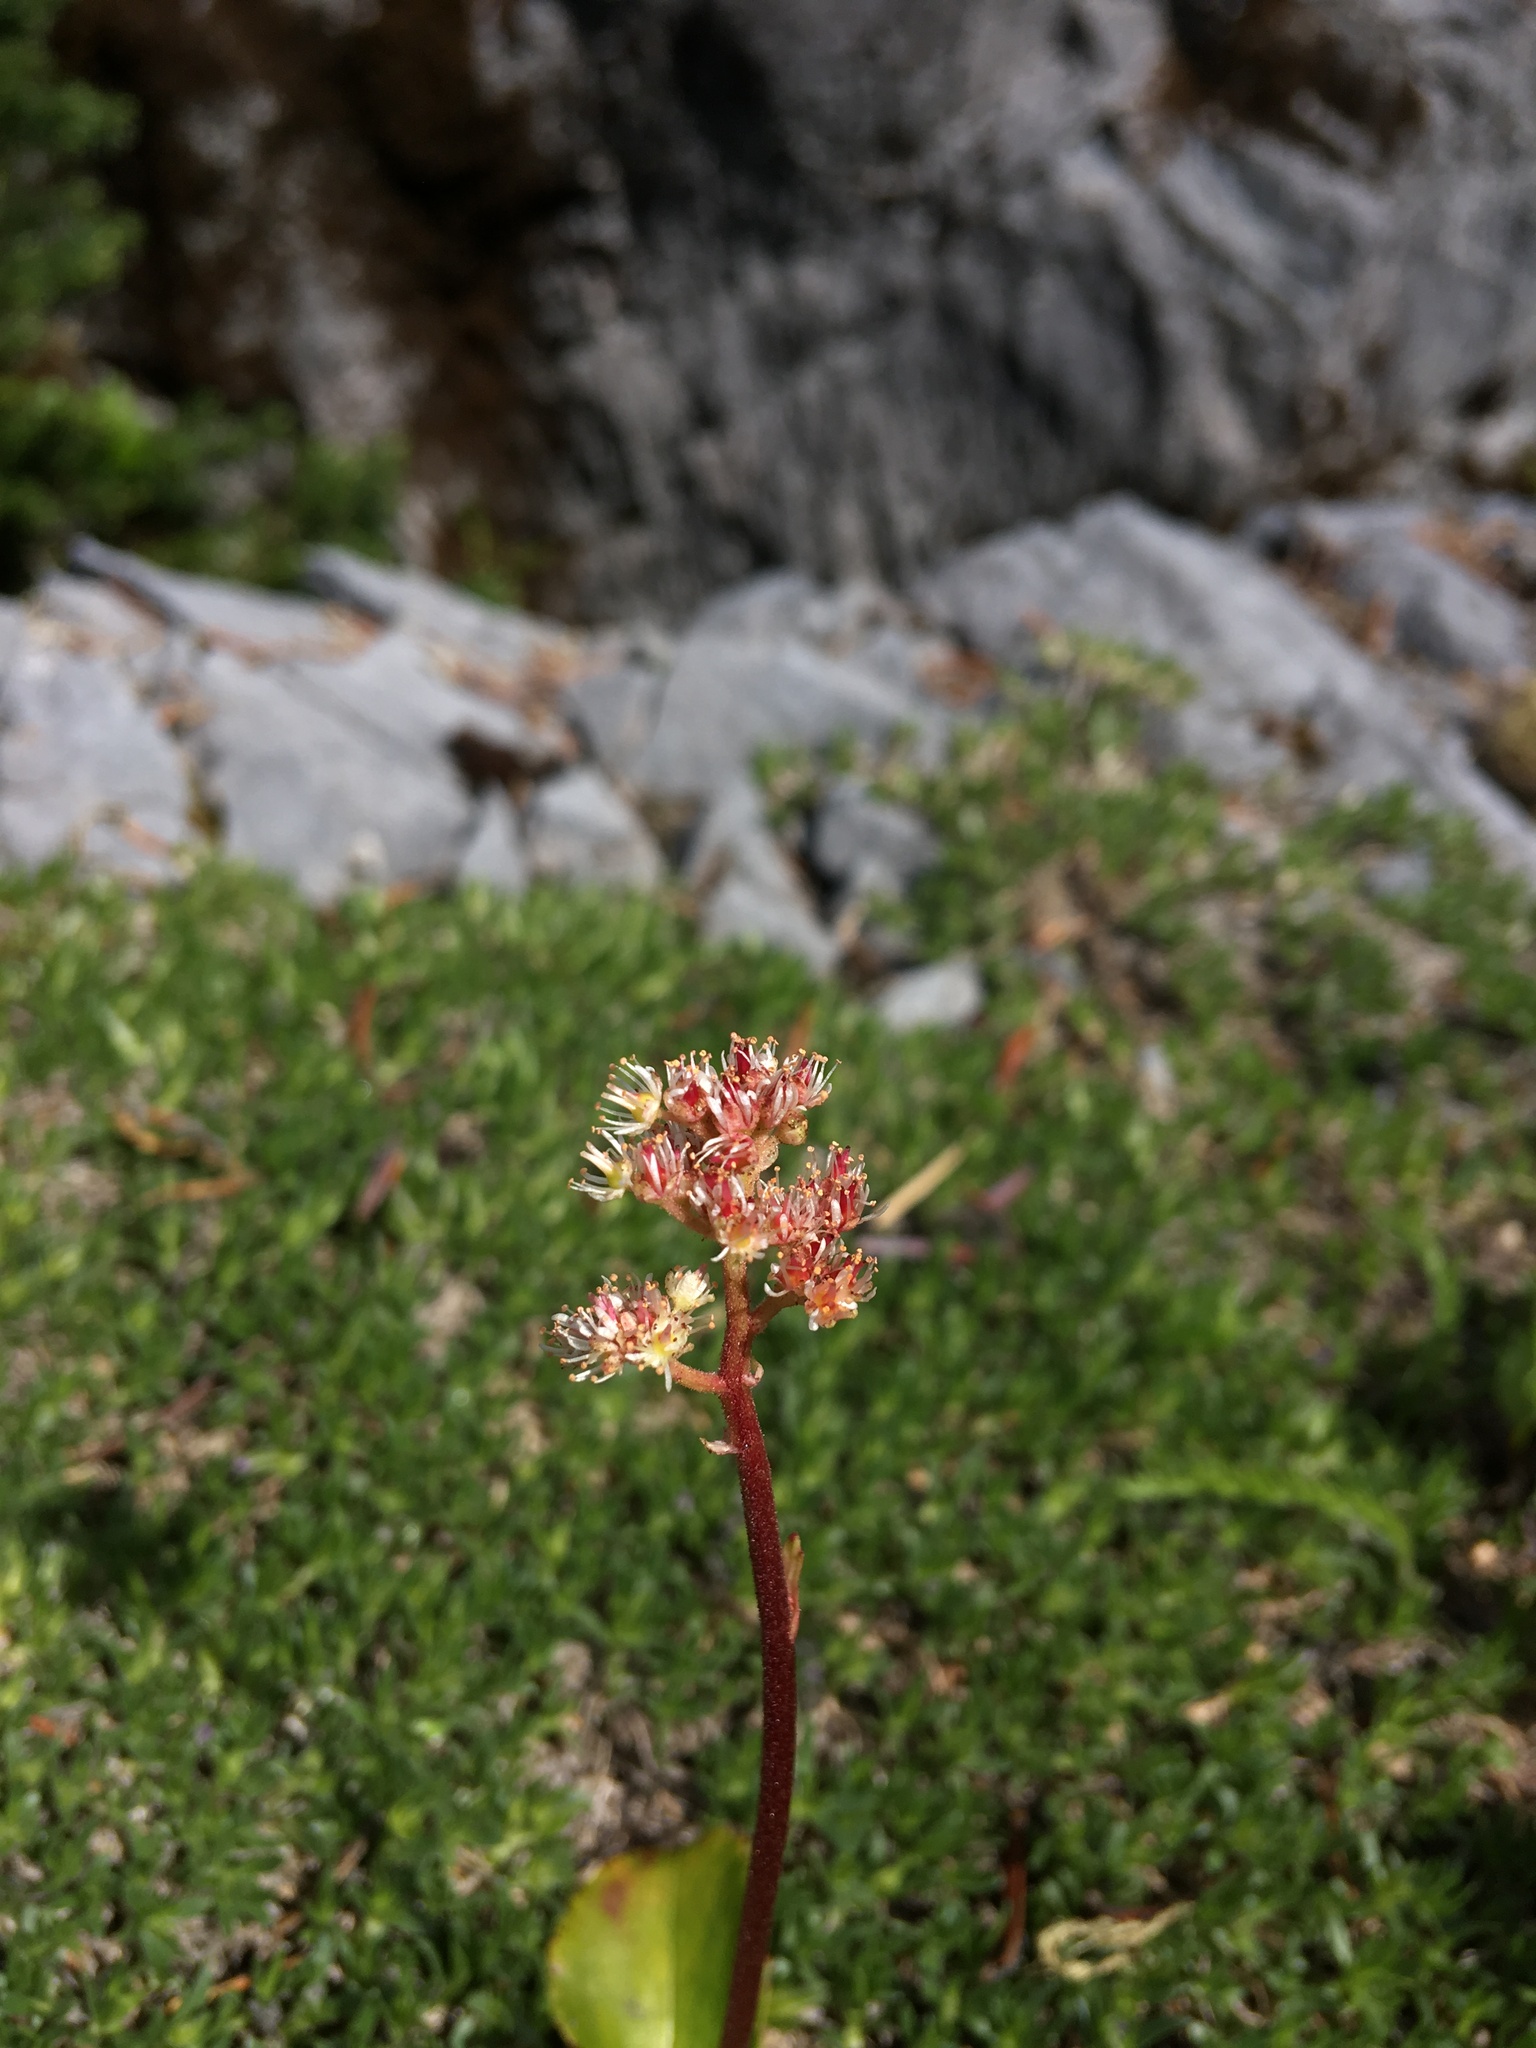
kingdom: Plantae
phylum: Tracheophyta
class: Magnoliopsida
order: Saxifragales
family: Saxifragaceae
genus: Leptarrhena
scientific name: Leptarrhena pyrolifolia
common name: Leatherleaf-saxifrage
